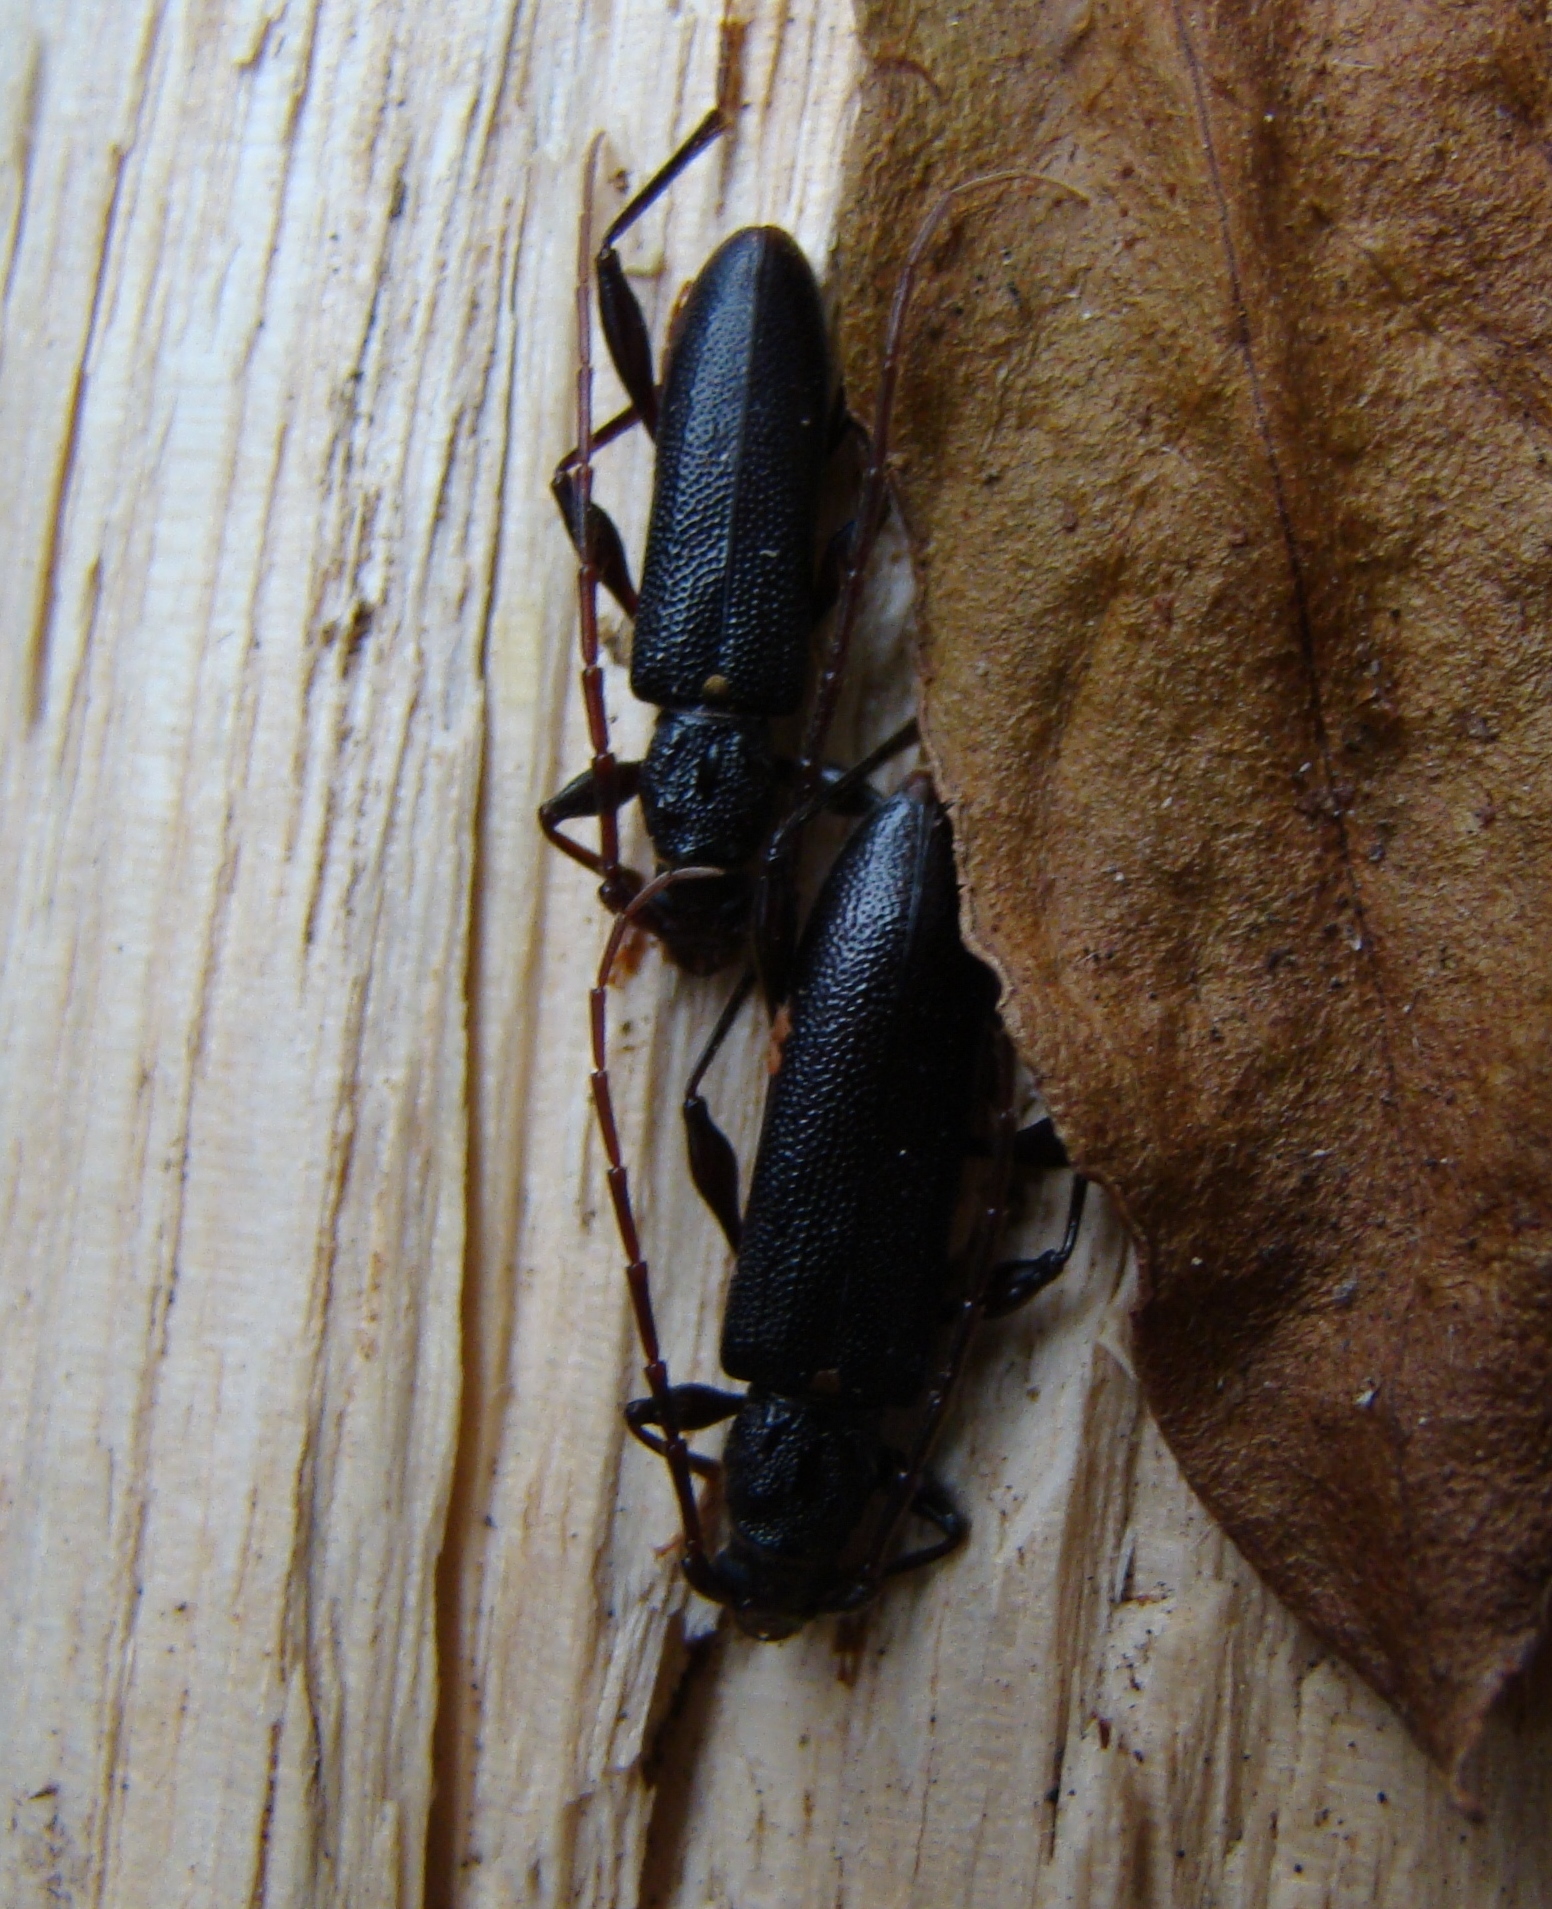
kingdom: Animalia
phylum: Arthropoda
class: Insecta
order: Coleoptera
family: Cerambycidae
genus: Callidiopis
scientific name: Callidiopis scutellaris
